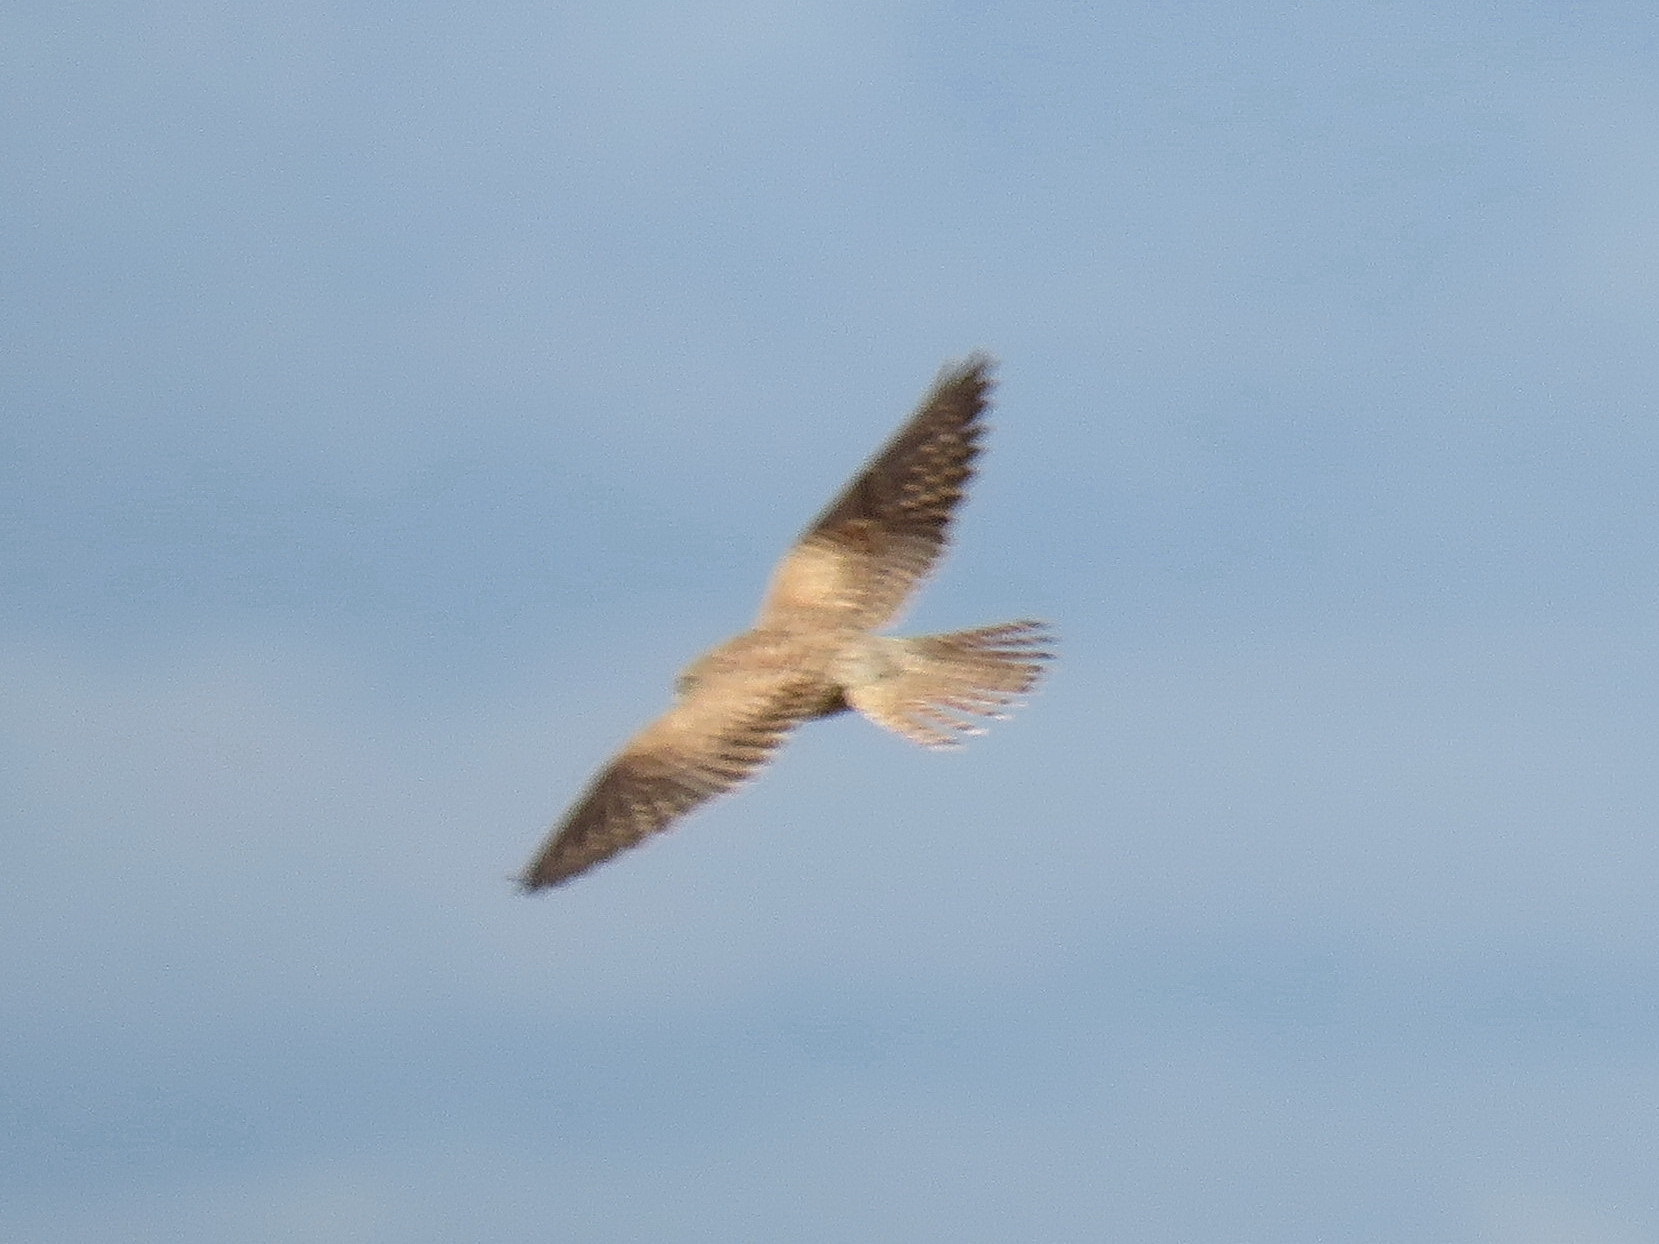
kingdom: Animalia
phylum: Chordata
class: Aves
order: Falconiformes
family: Falconidae
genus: Falco
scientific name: Falco tinnunculus
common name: Common kestrel
